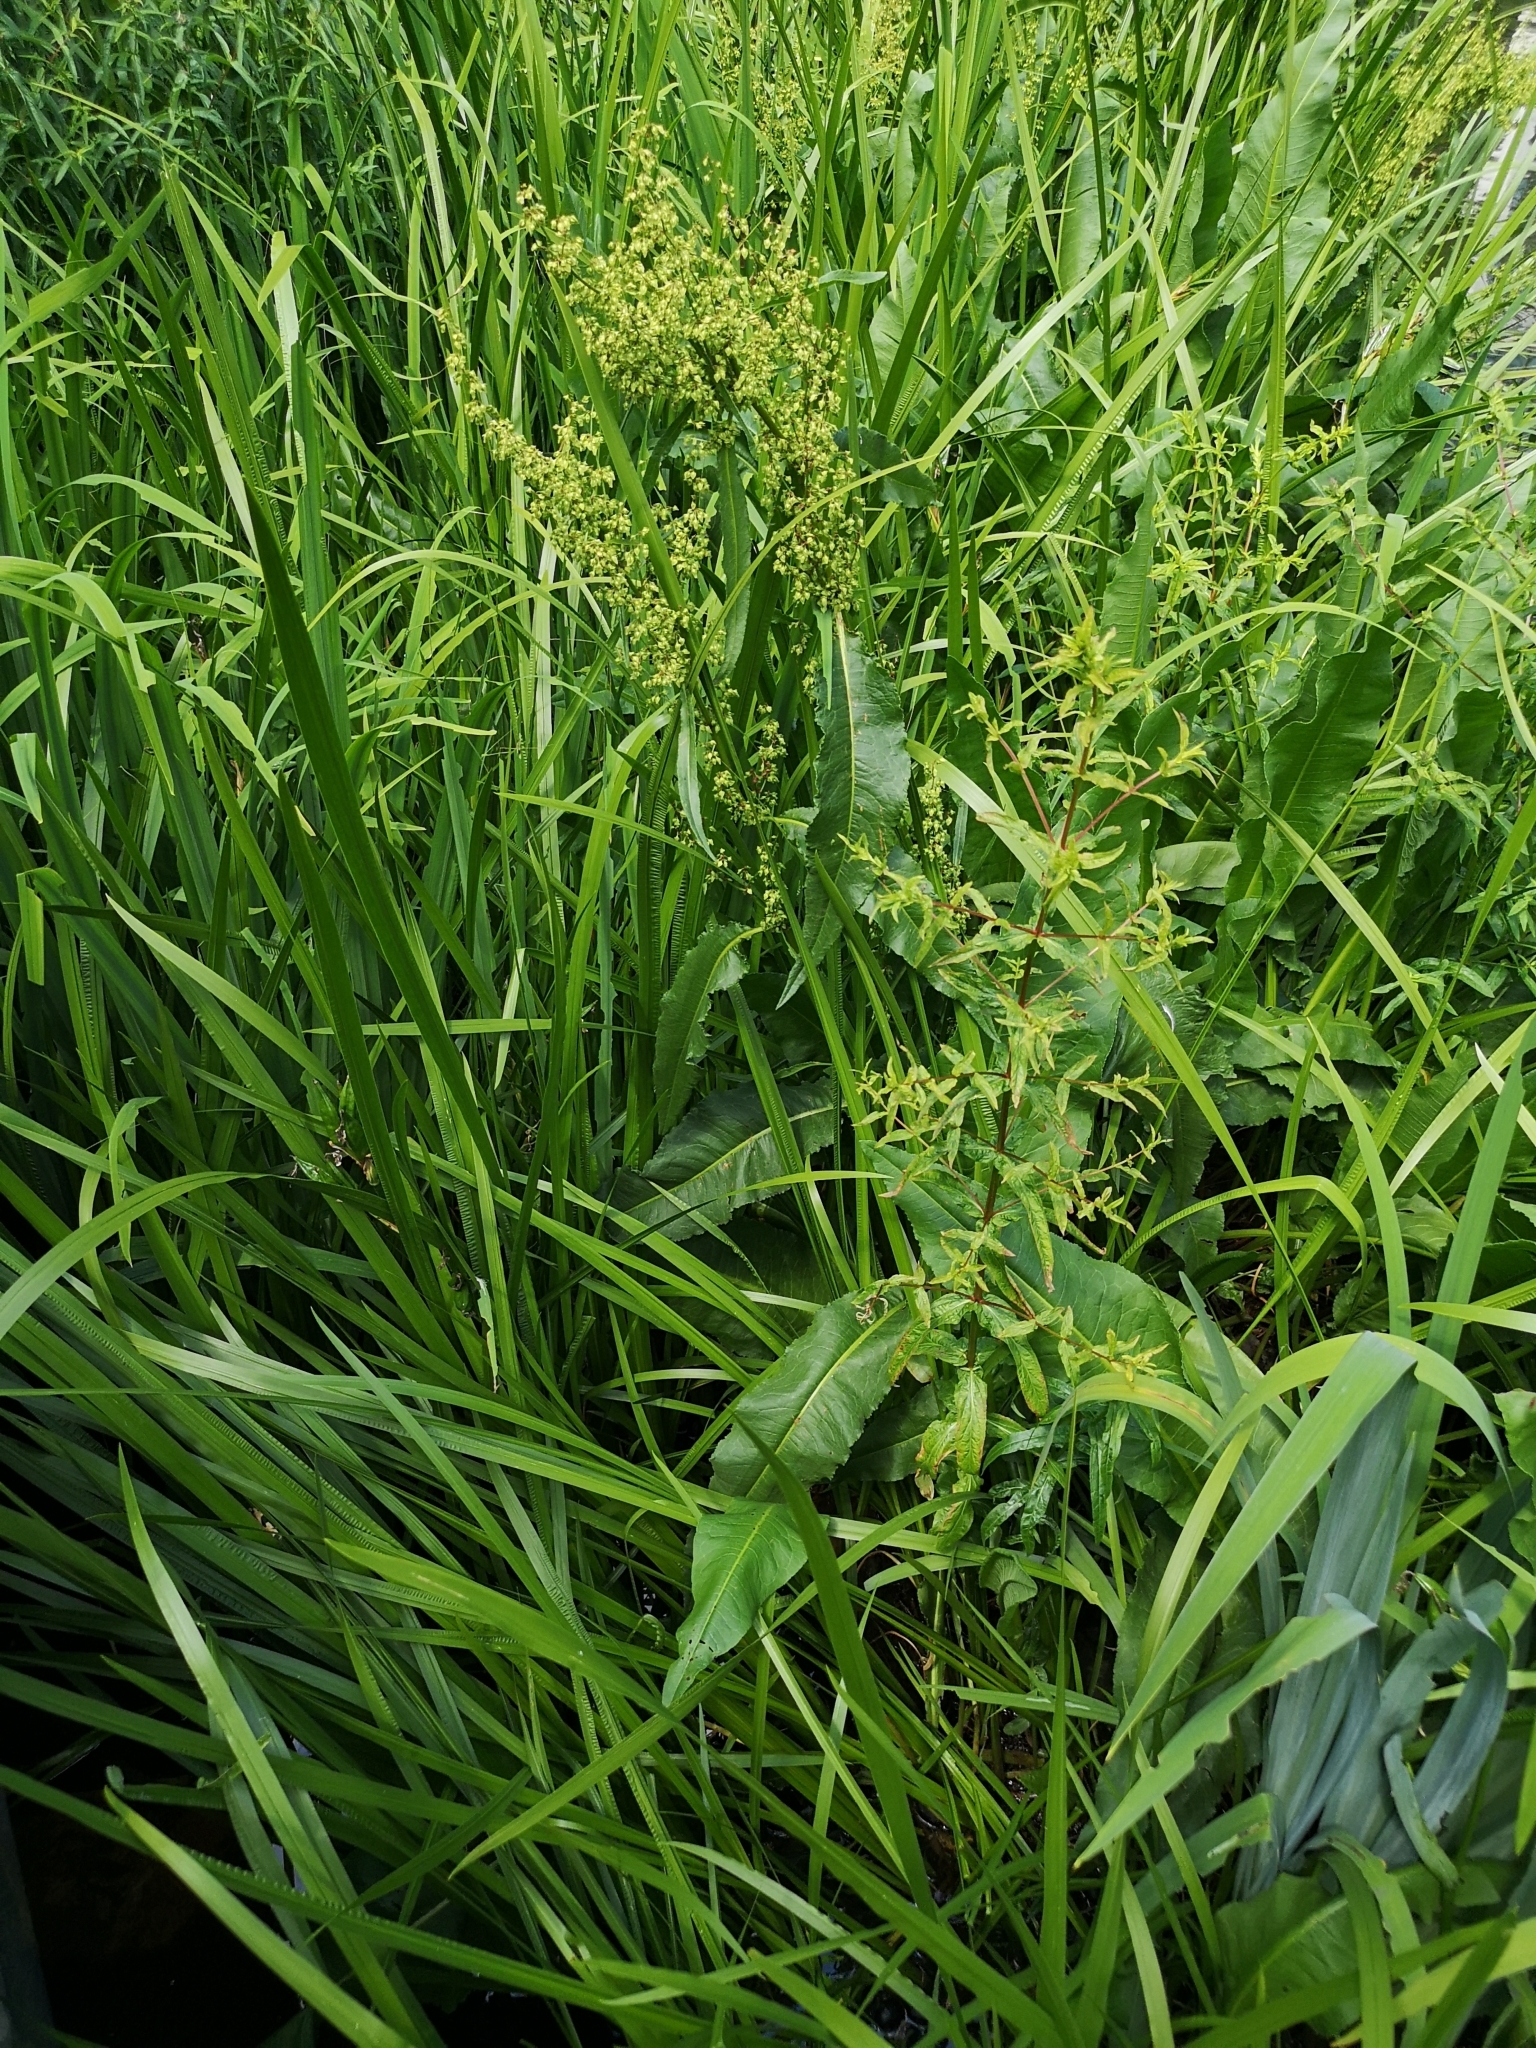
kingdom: Plantae
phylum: Tracheophyta
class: Magnoliopsida
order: Caryophyllales
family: Polygonaceae
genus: Rumex
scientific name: Rumex hydrolapathum
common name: Water dock
